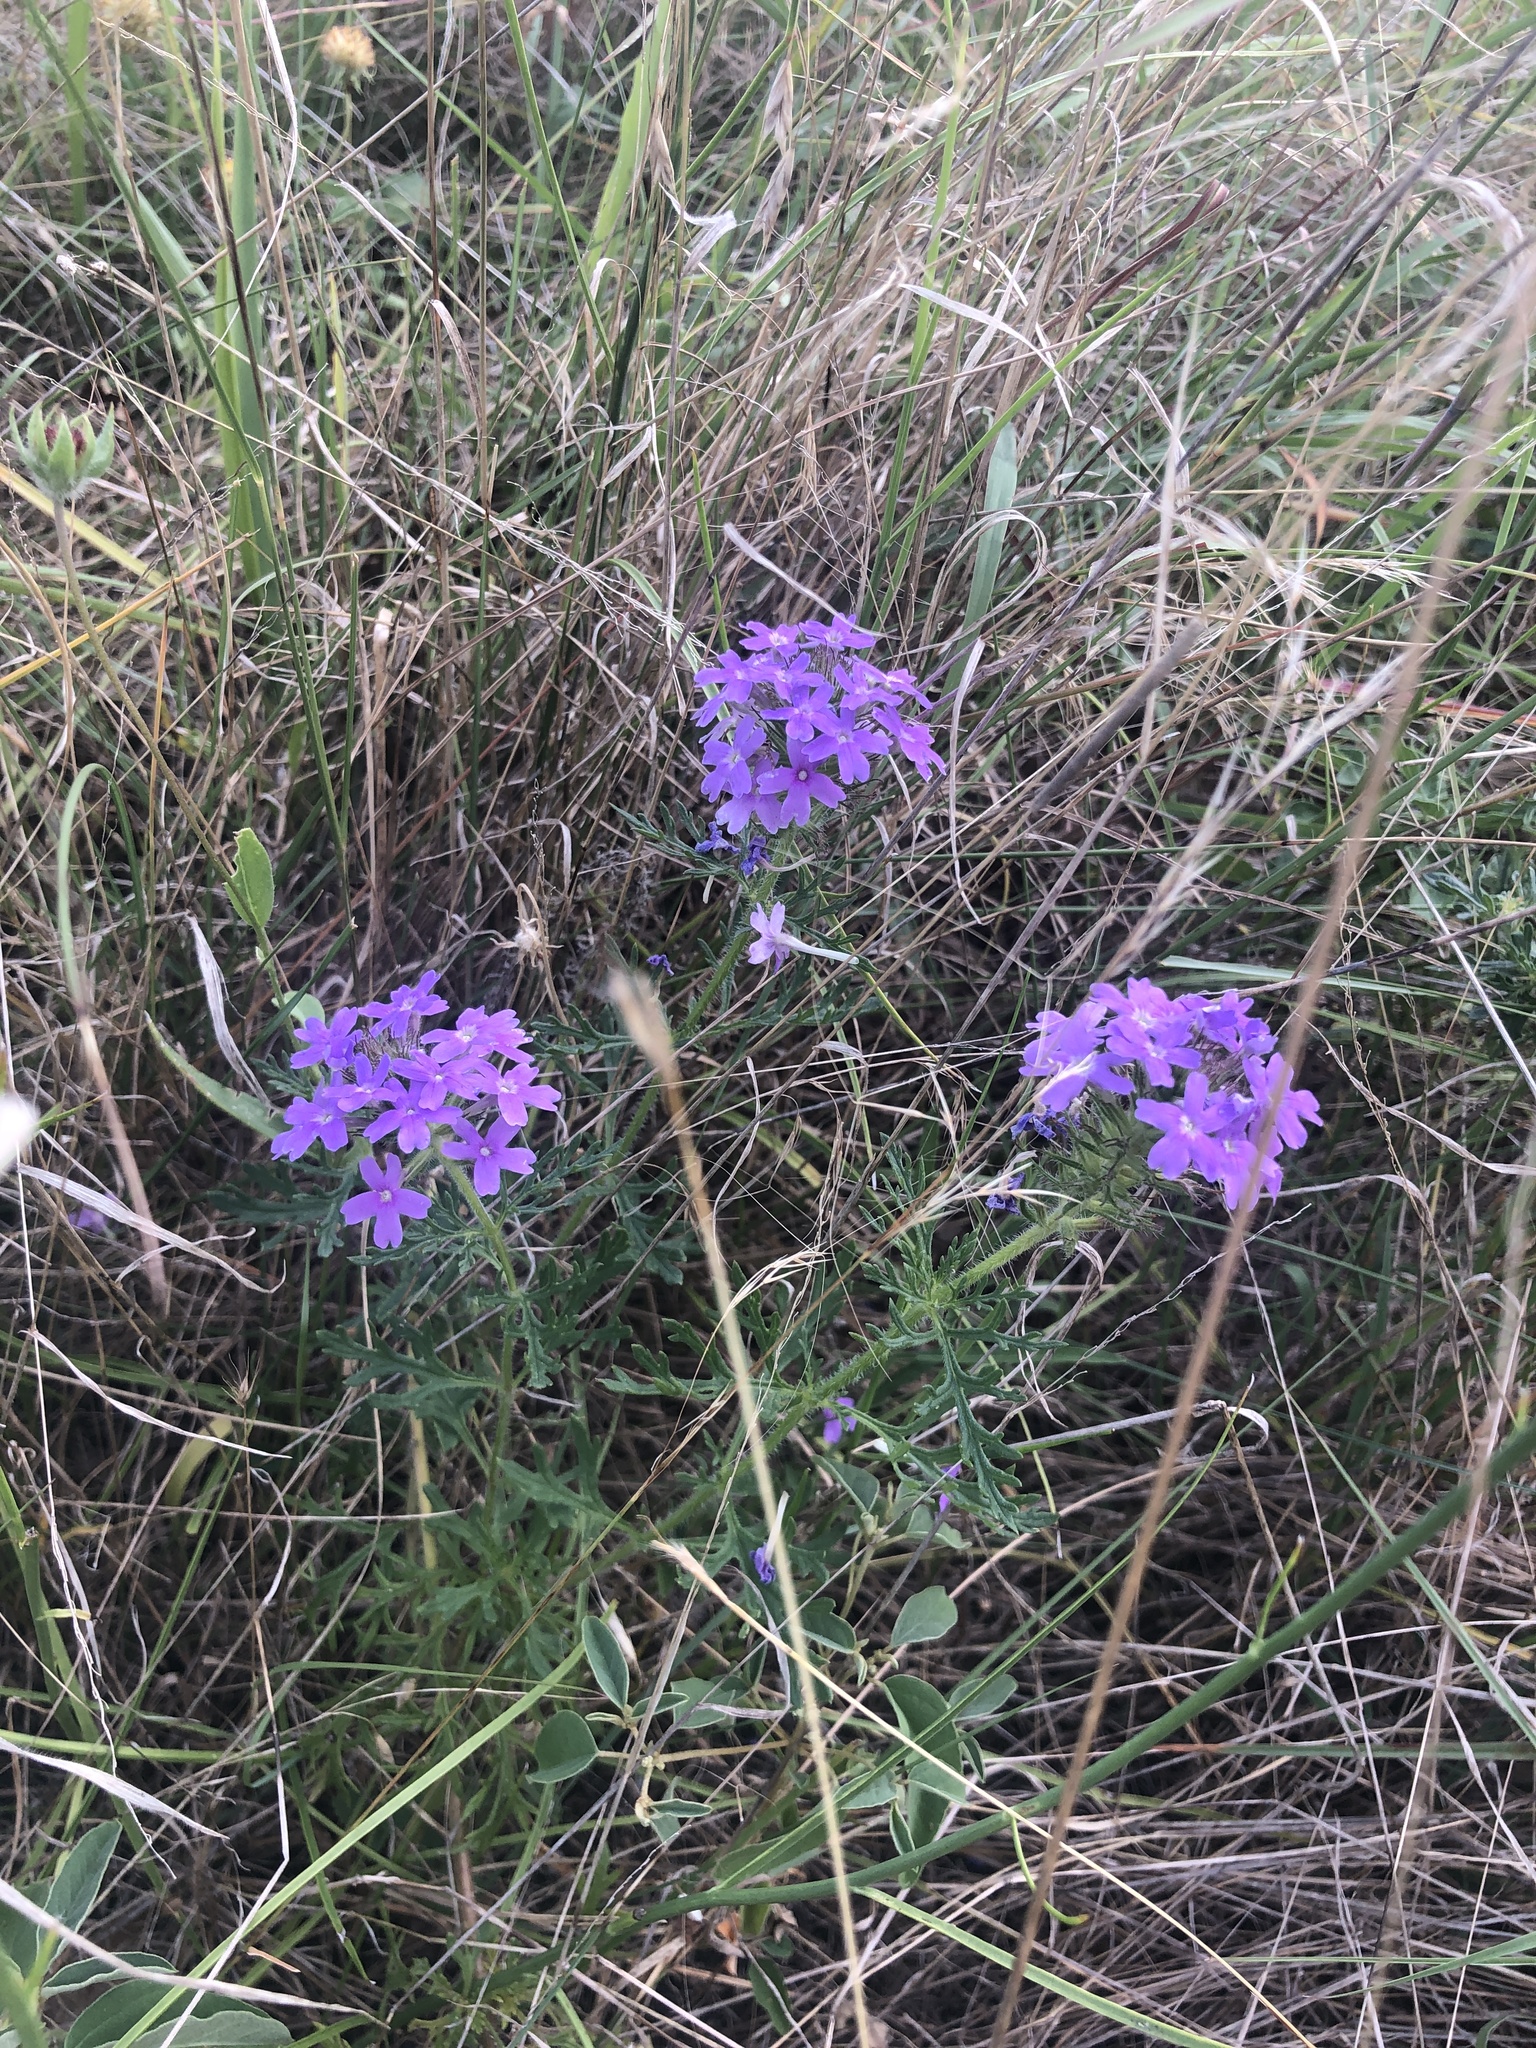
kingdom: Plantae
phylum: Tracheophyta
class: Magnoliopsida
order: Lamiales
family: Verbenaceae
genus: Verbena
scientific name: Verbena bipinnatifida
